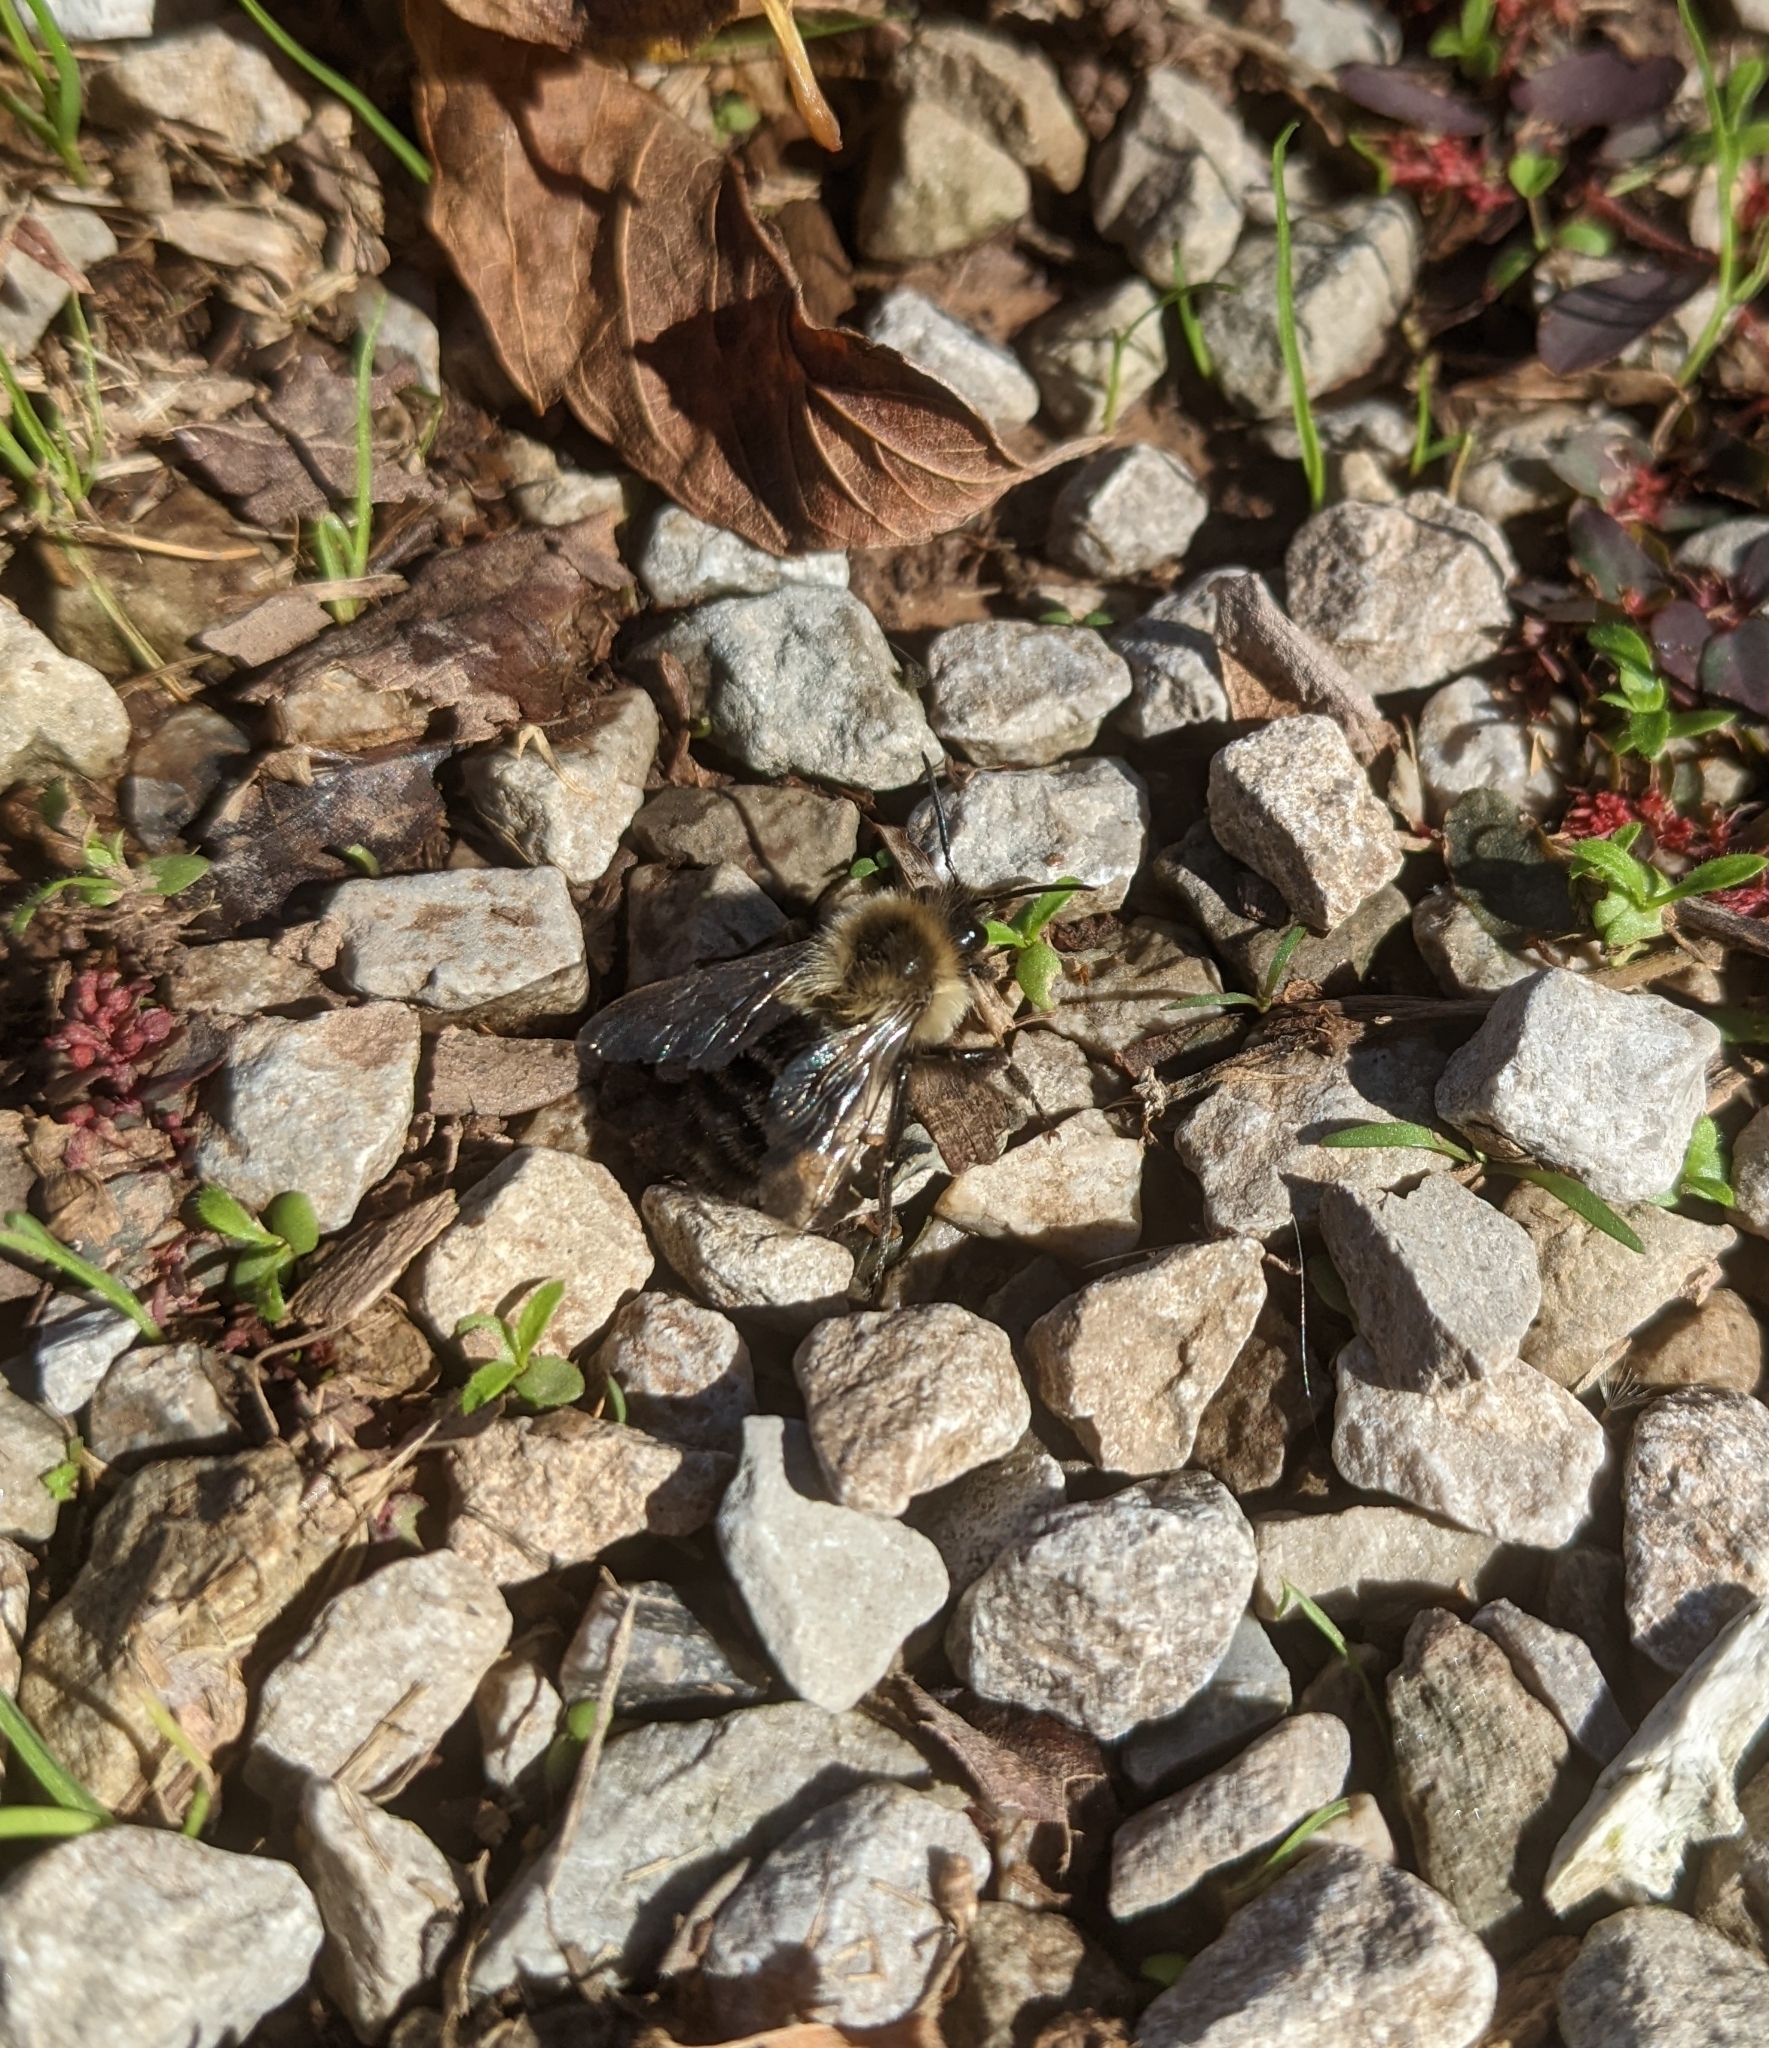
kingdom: Animalia
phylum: Arthropoda
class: Insecta
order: Hymenoptera
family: Apidae
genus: Bombus
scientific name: Bombus impatiens
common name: Common eastern bumble bee
